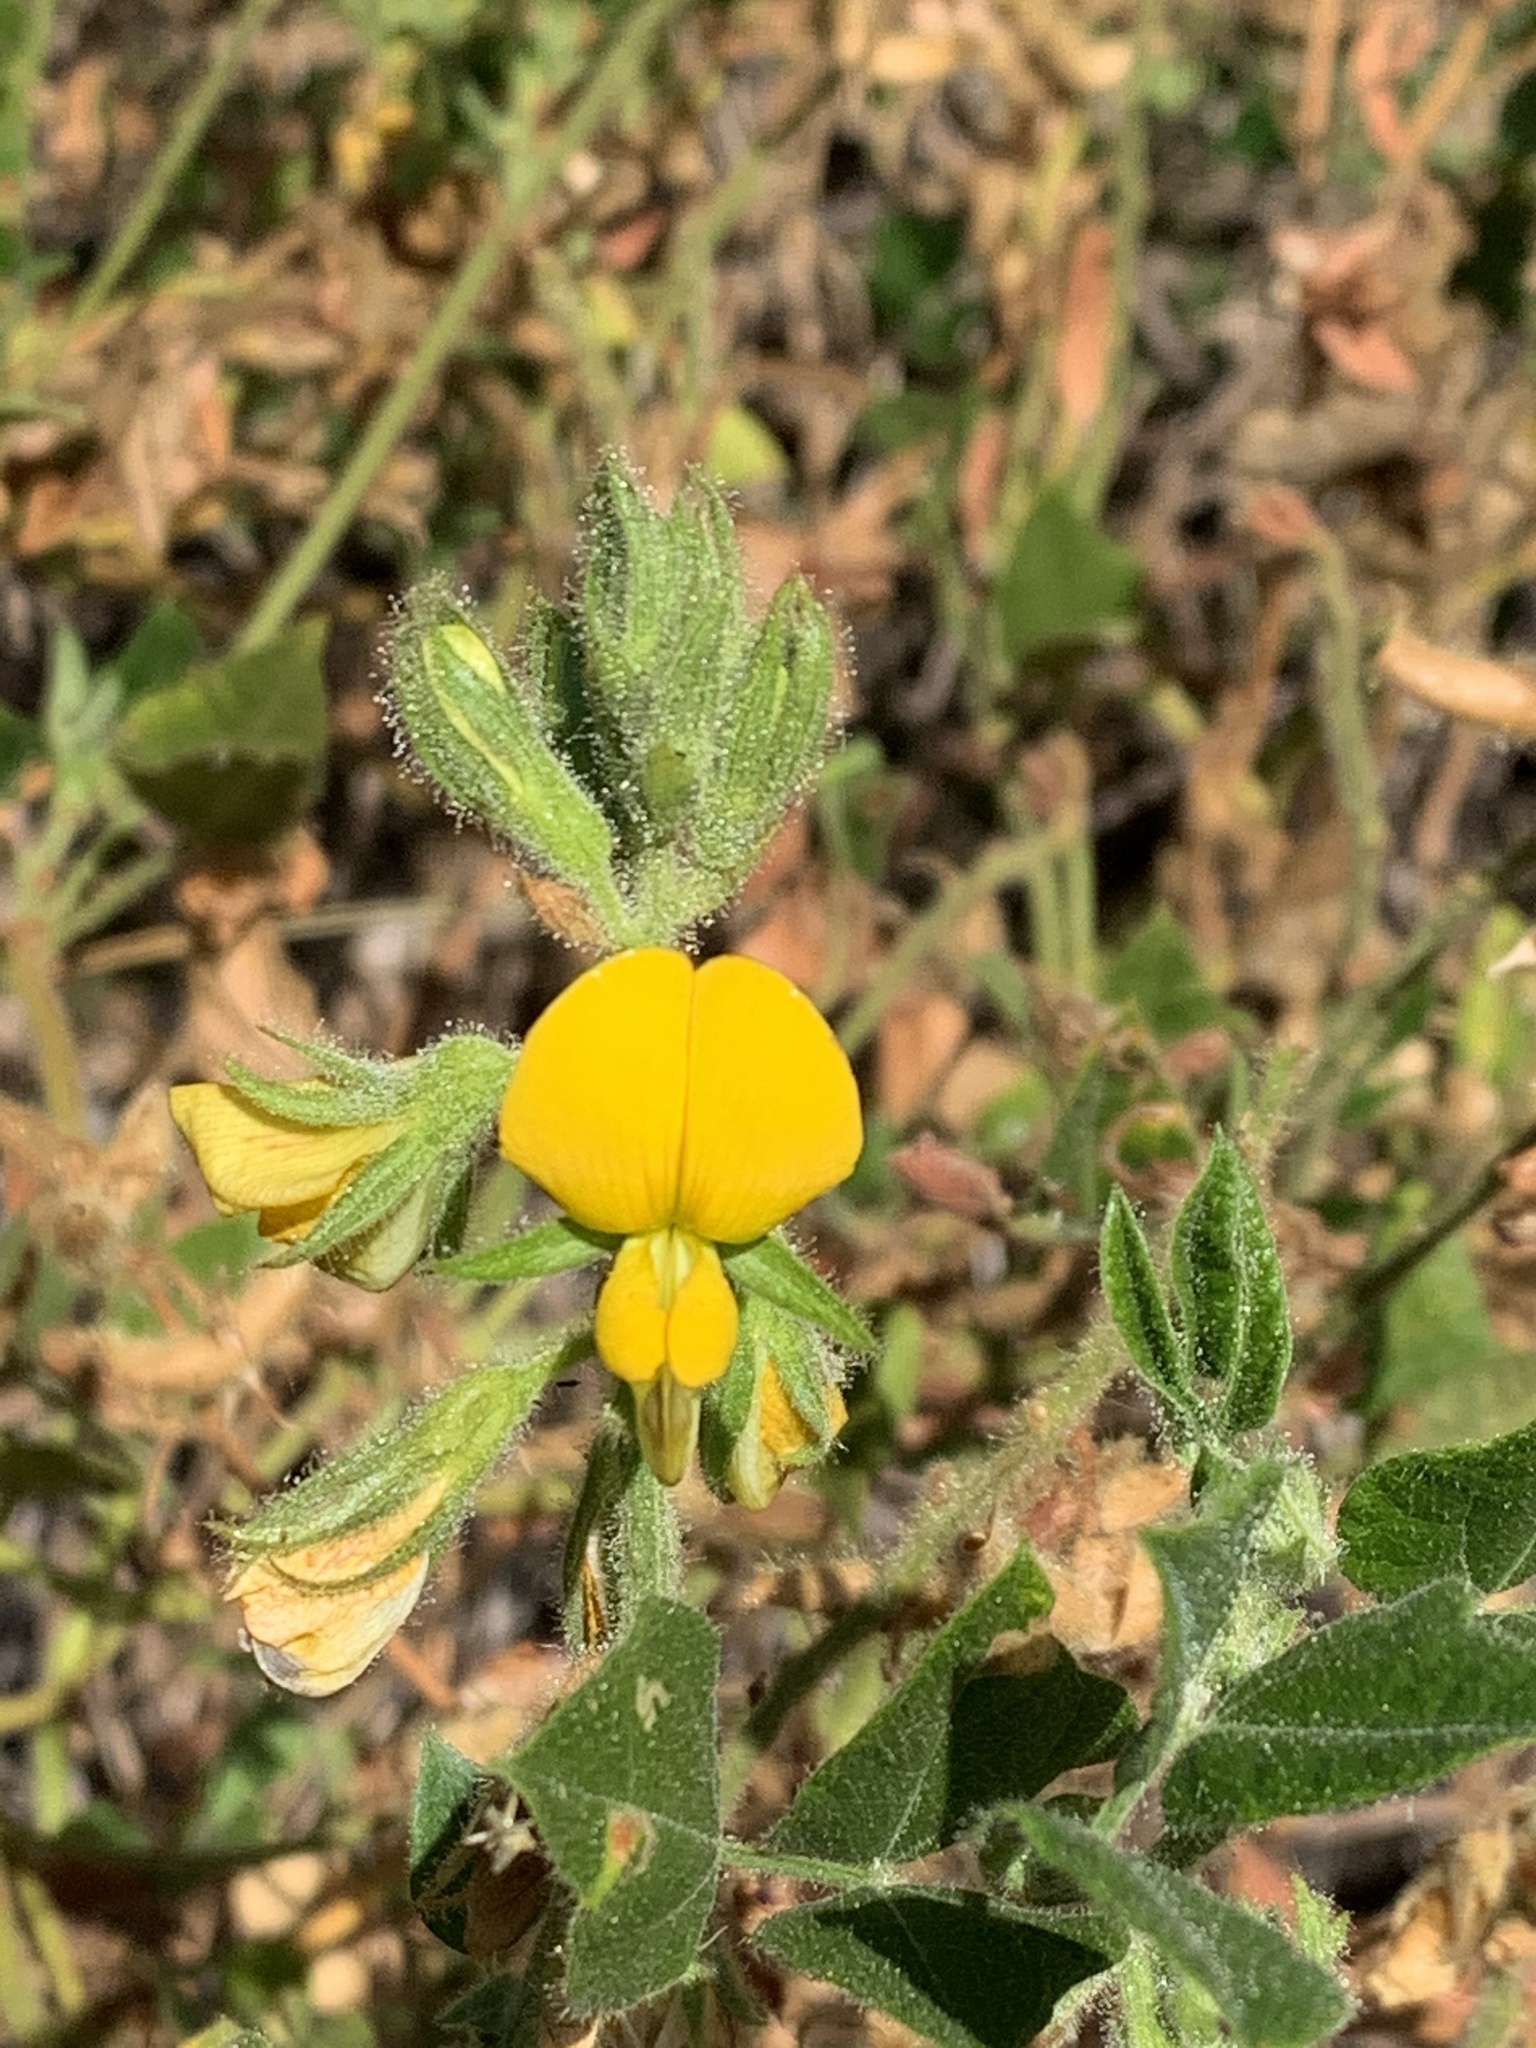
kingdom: Plantae
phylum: Tracheophyta
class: Magnoliopsida
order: Fabales
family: Fabaceae
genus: Bolusafra
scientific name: Bolusafra bituminosa
